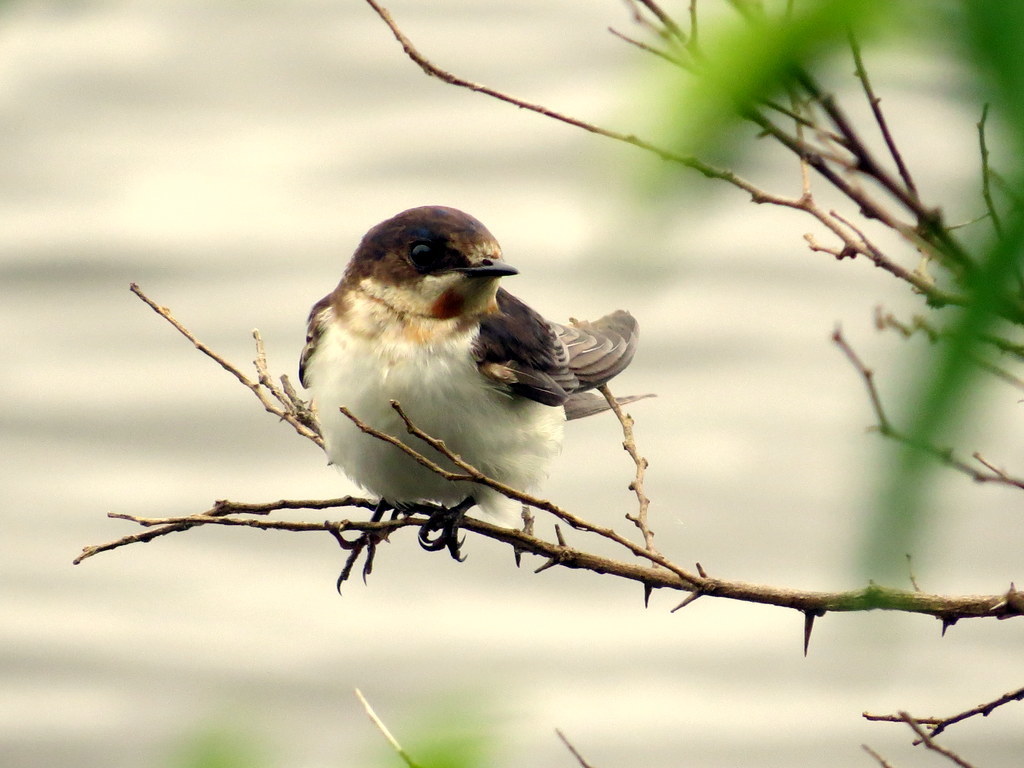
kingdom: Animalia
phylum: Chordata
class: Aves
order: Passeriformes
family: Hirundinidae
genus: Petrochelidon
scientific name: Petrochelidon pyrrhonota
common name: American cliff swallow
